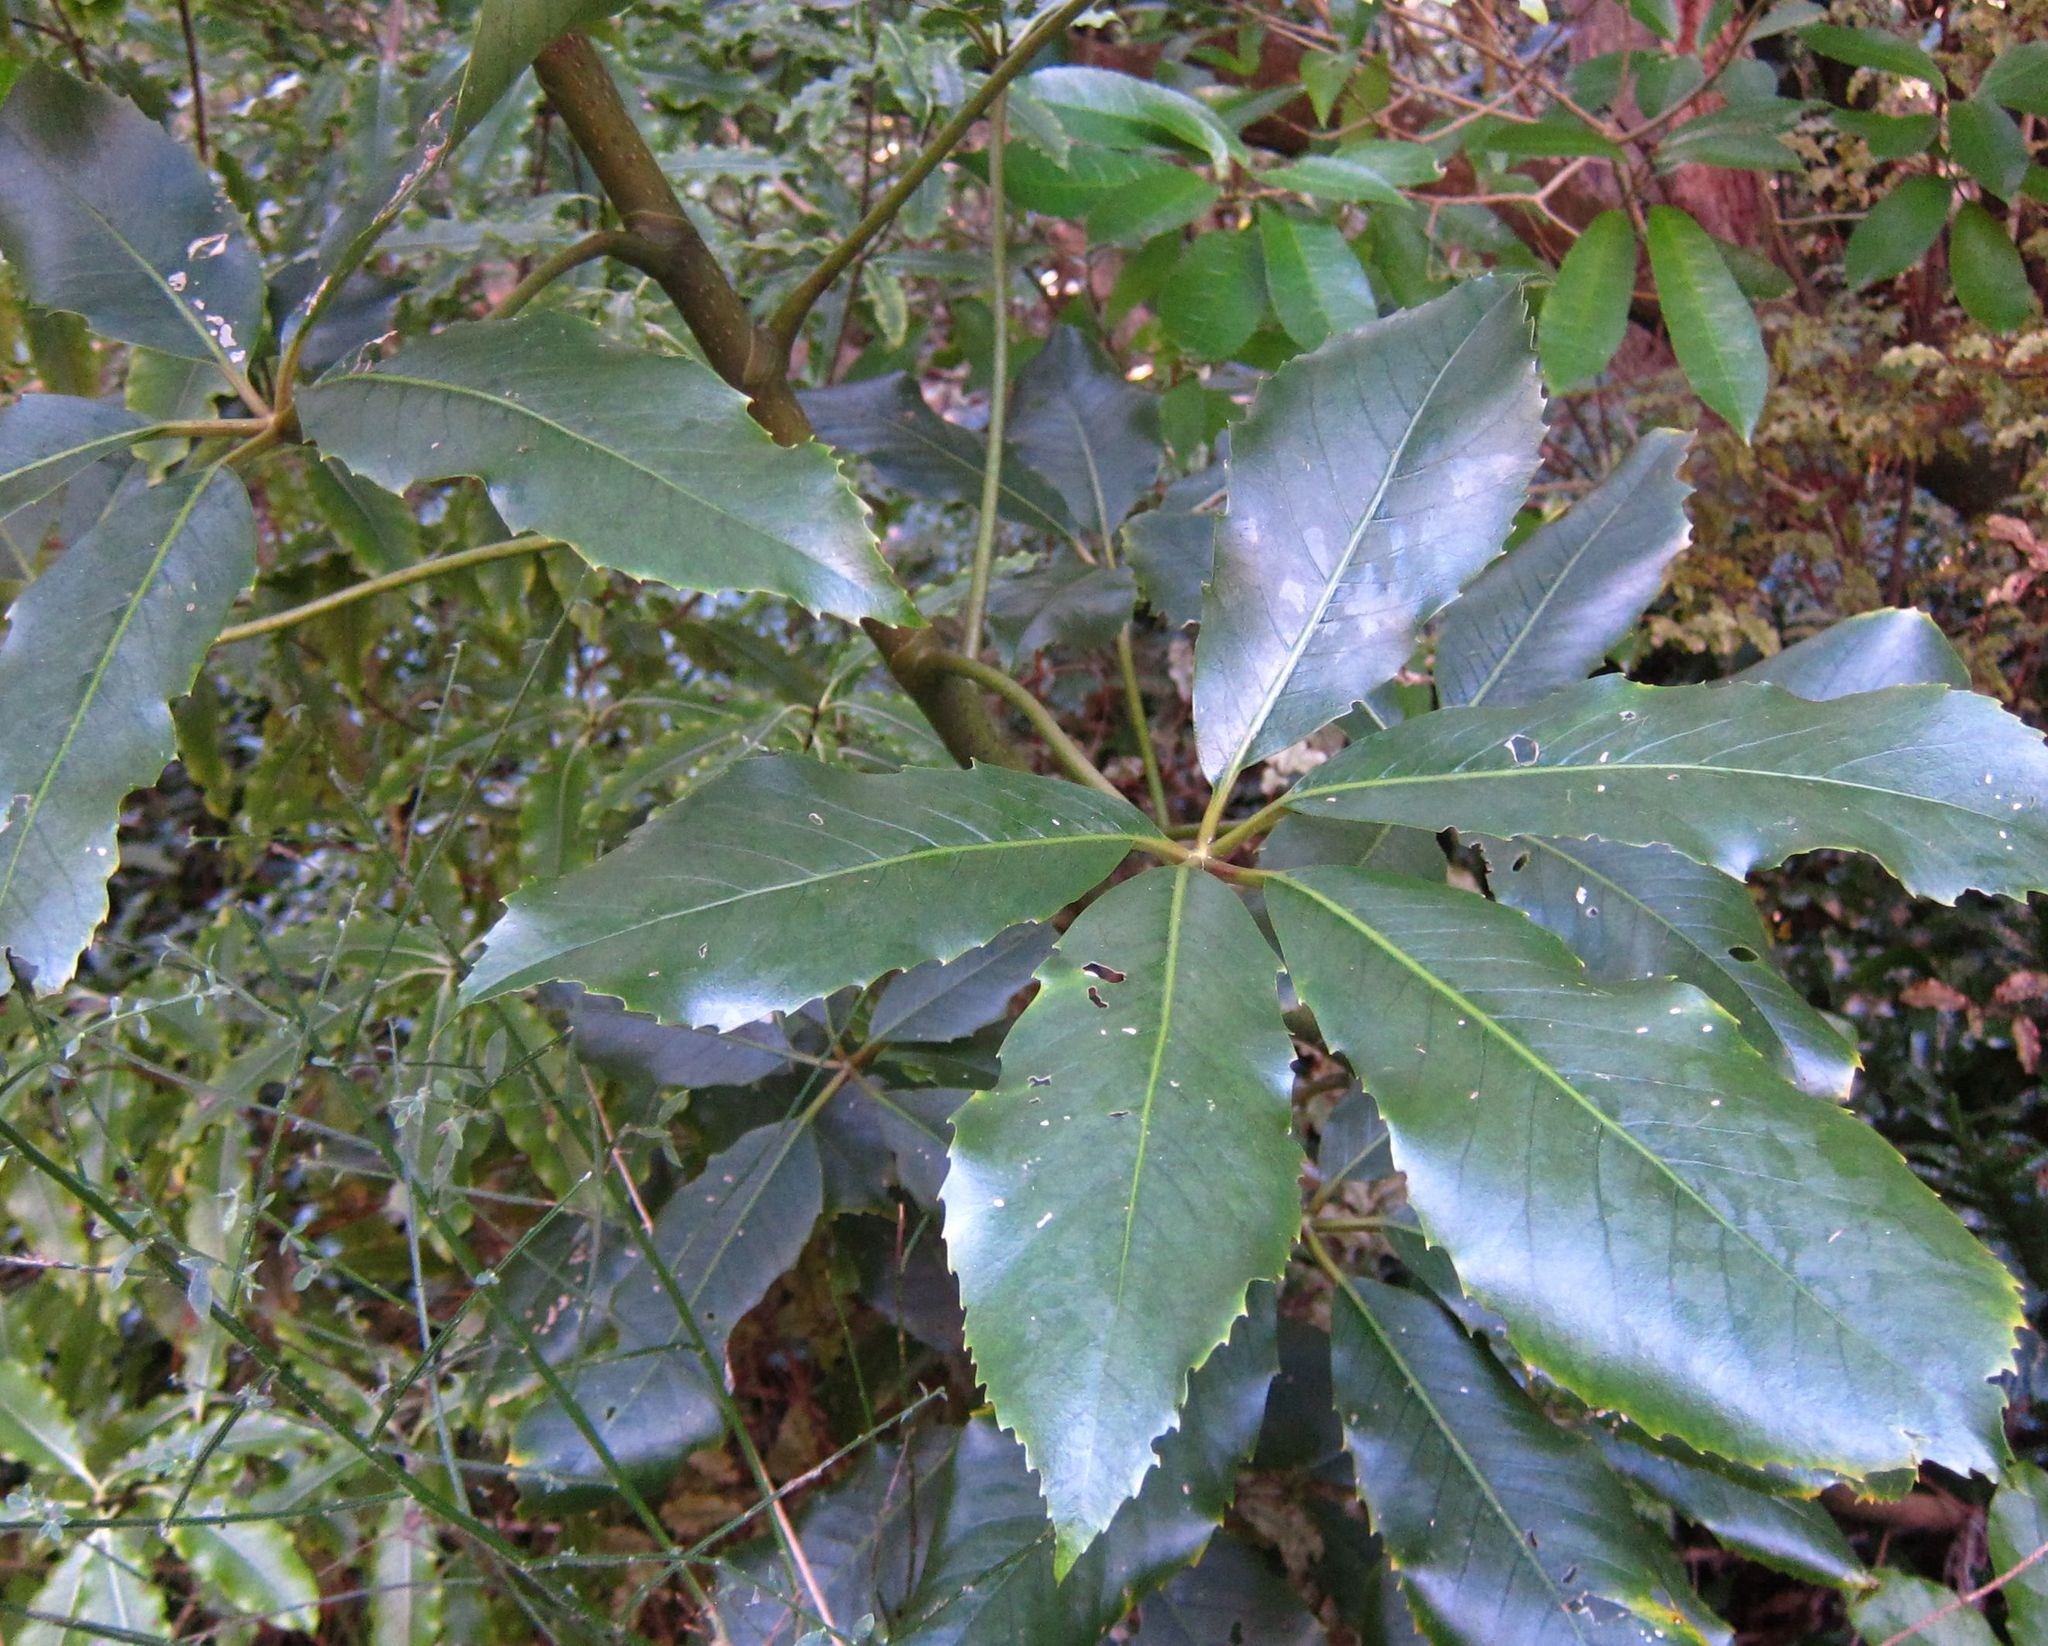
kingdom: Plantae
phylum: Tracheophyta
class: Magnoliopsida
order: Apiales
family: Araliaceae
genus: Neopanax
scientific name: Neopanax arboreus
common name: Five-fingers
